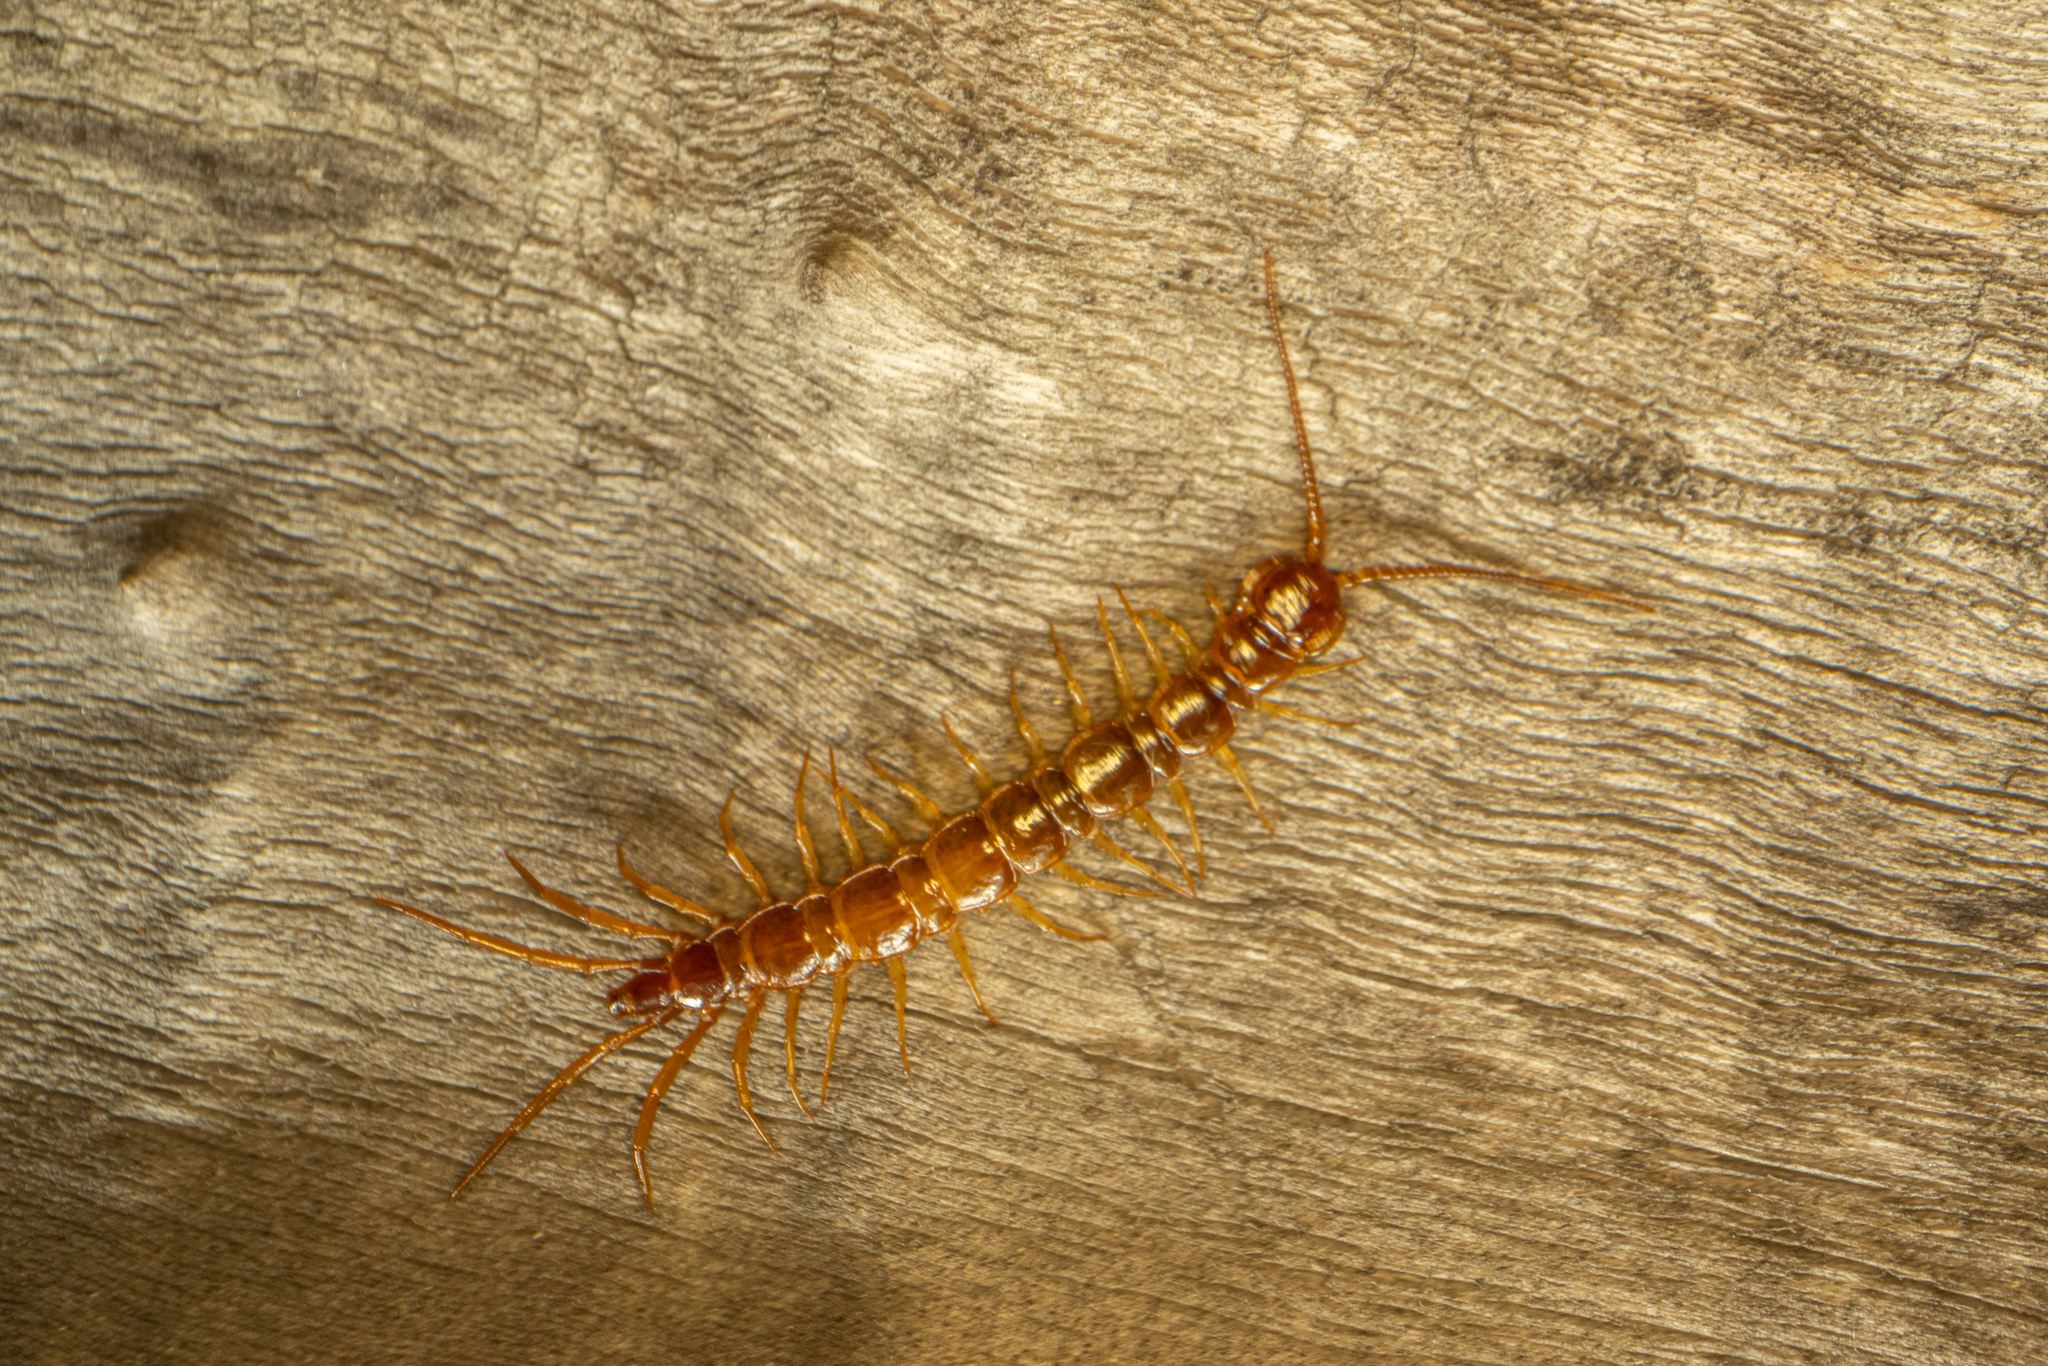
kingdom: Animalia
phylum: Arthropoda
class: Chilopoda
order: Lithobiomorpha
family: Lithobiidae
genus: Lithobius
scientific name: Lithobius forficatus
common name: Centipede
